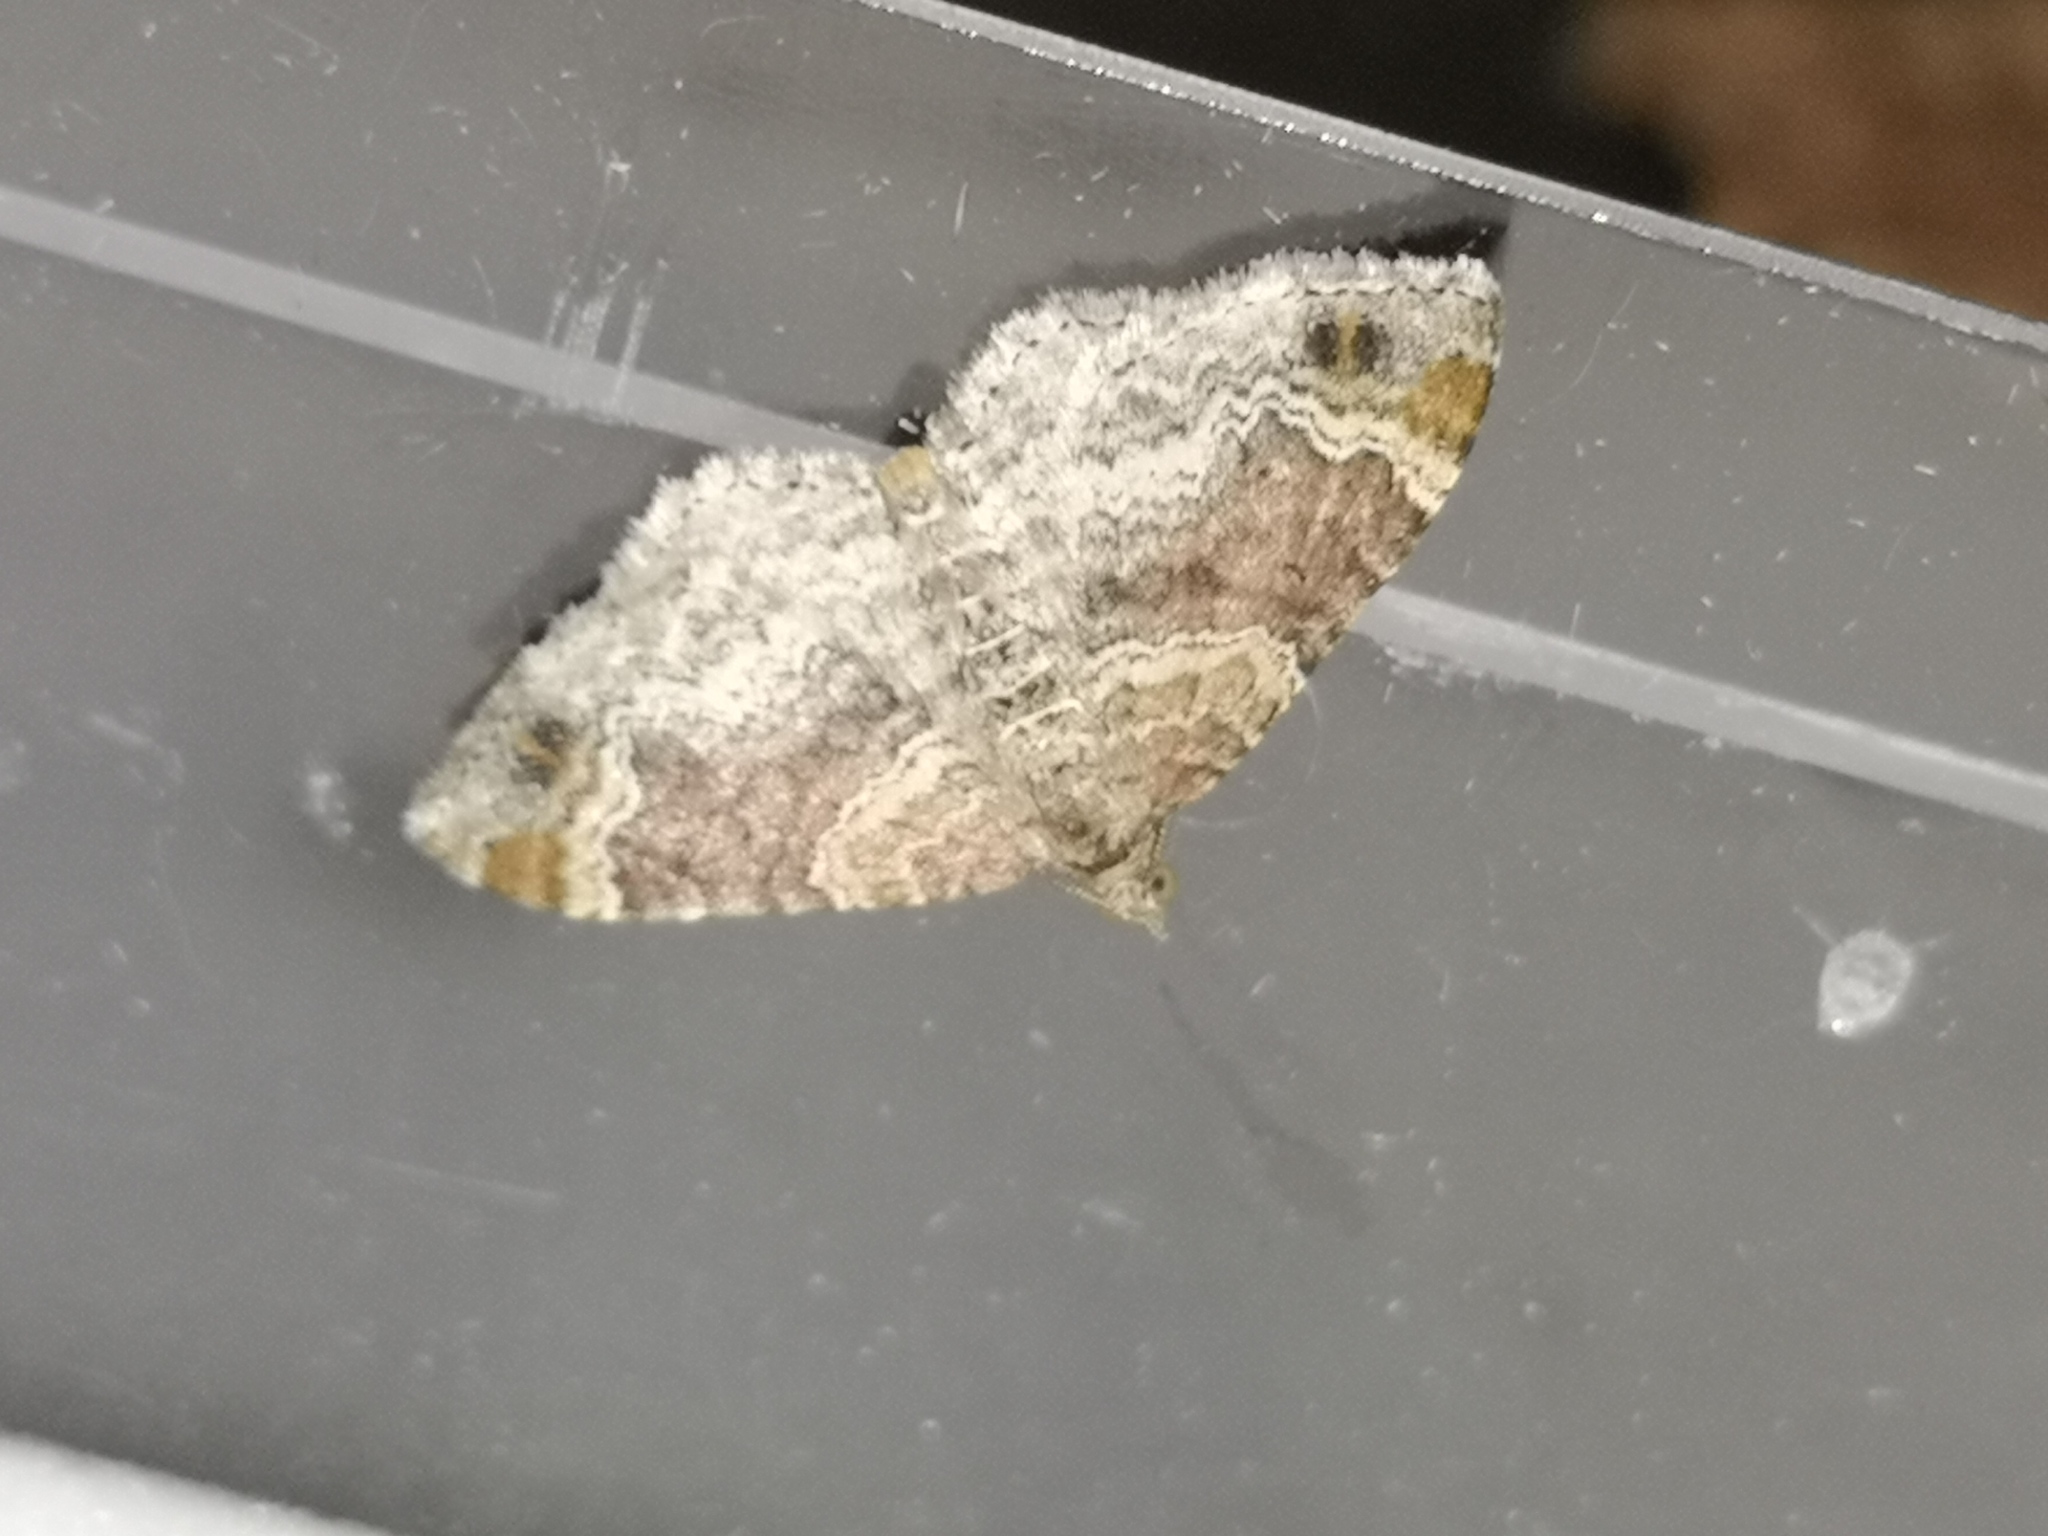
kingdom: Animalia
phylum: Arthropoda
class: Insecta
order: Lepidoptera
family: Geometridae
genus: Xanthorhoe
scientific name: Xanthorhoe spadicearia
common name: Red twin-spot carpet
